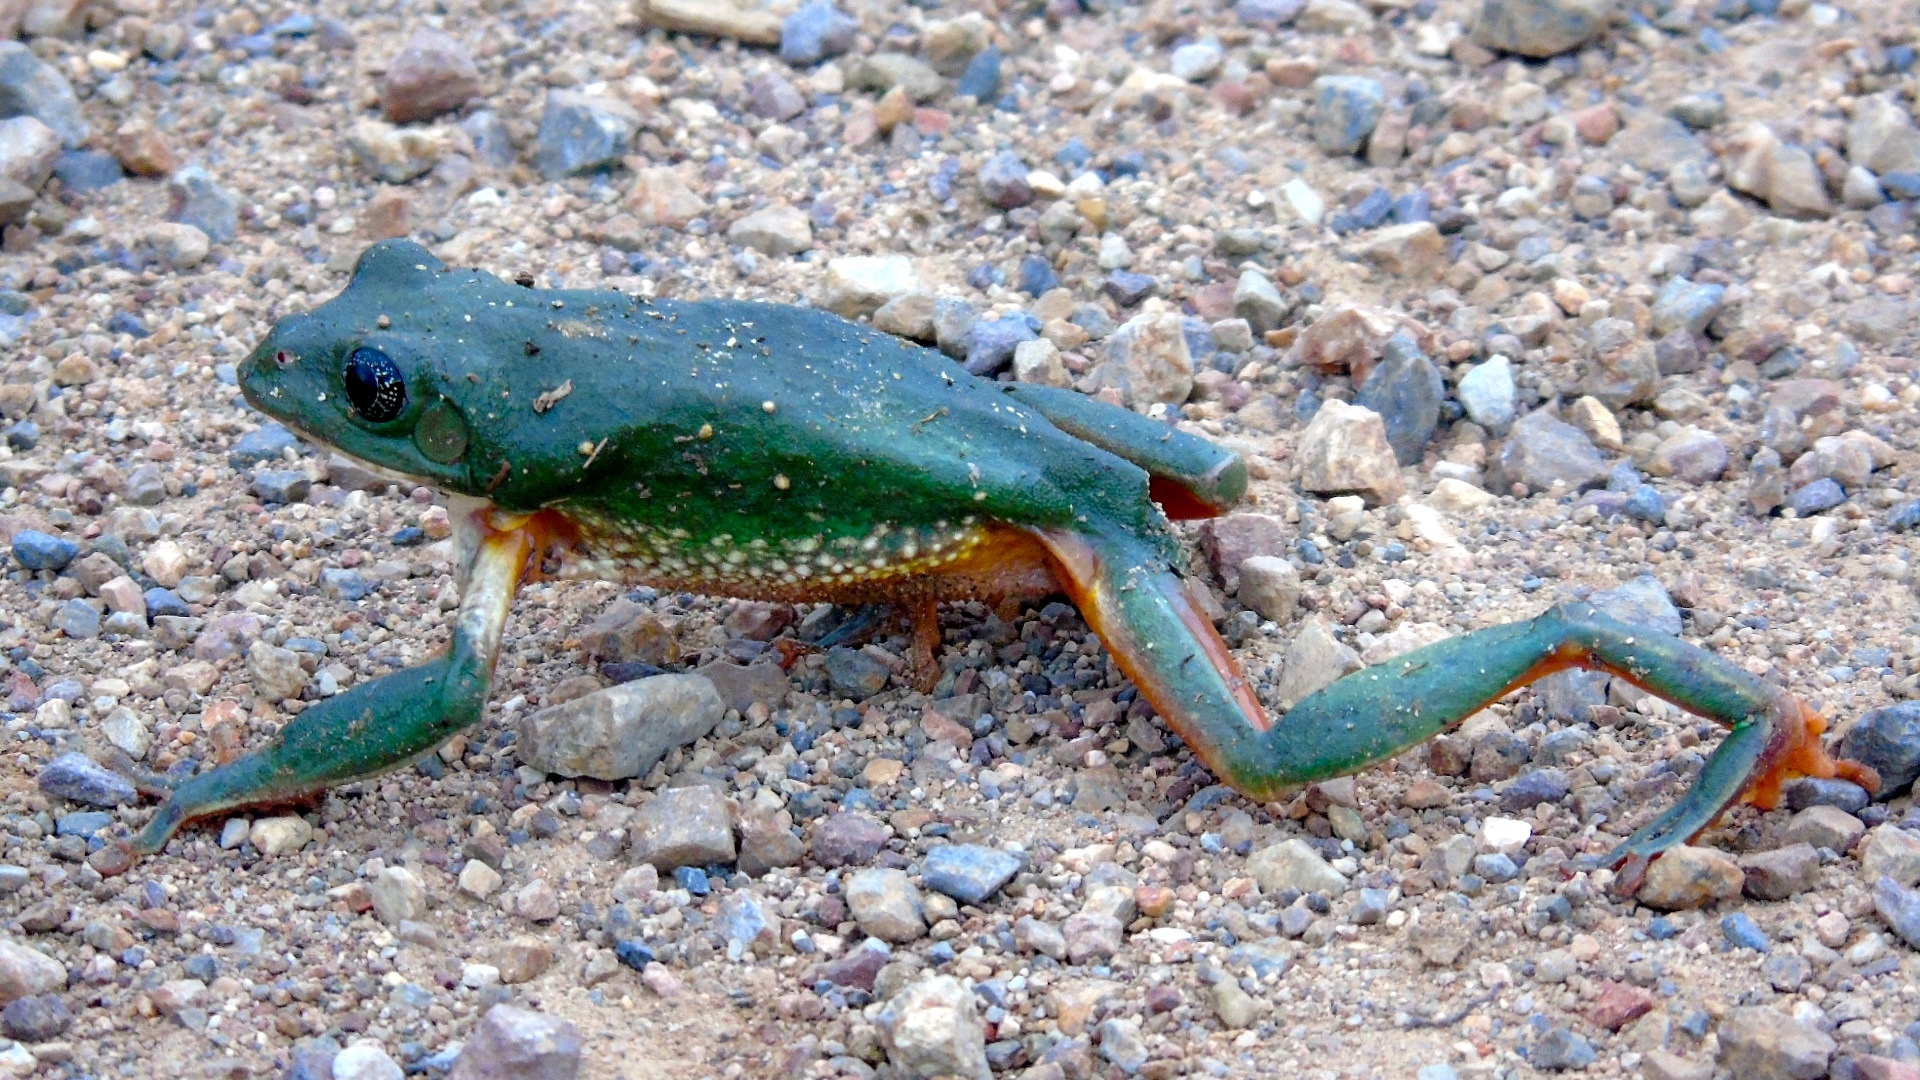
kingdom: Animalia
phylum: Chordata
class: Amphibia
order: Anura
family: Phyllomedusidae
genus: Agalychnis
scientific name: Agalychnis dacnicolor
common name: Mexican giant tree frog
